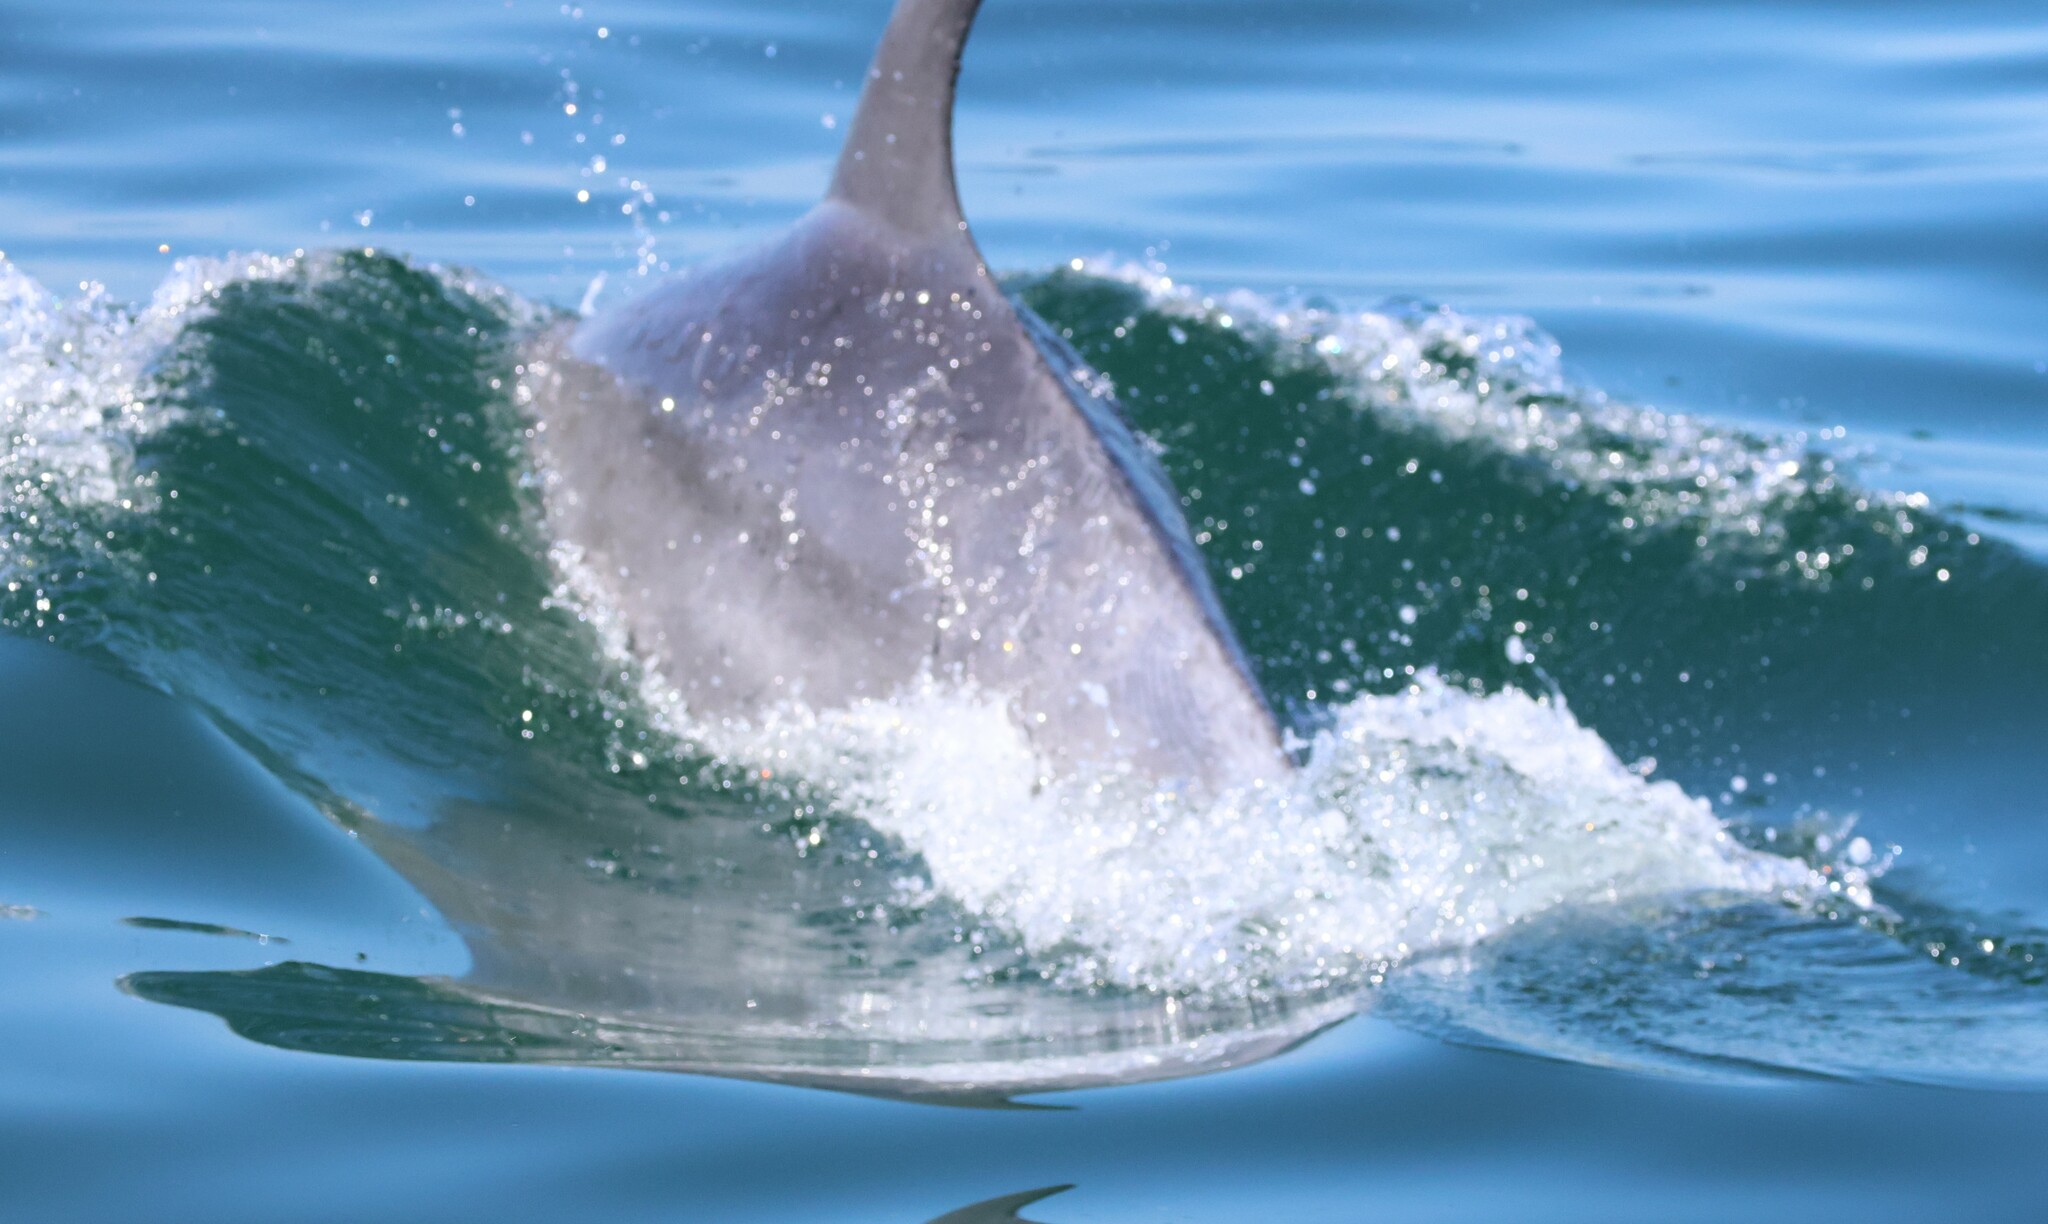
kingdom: Animalia
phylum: Chordata
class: Mammalia
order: Cetacea
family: Delphinidae
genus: Tursiops
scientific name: Tursiops truncatus
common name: Bottlenose dolphin
